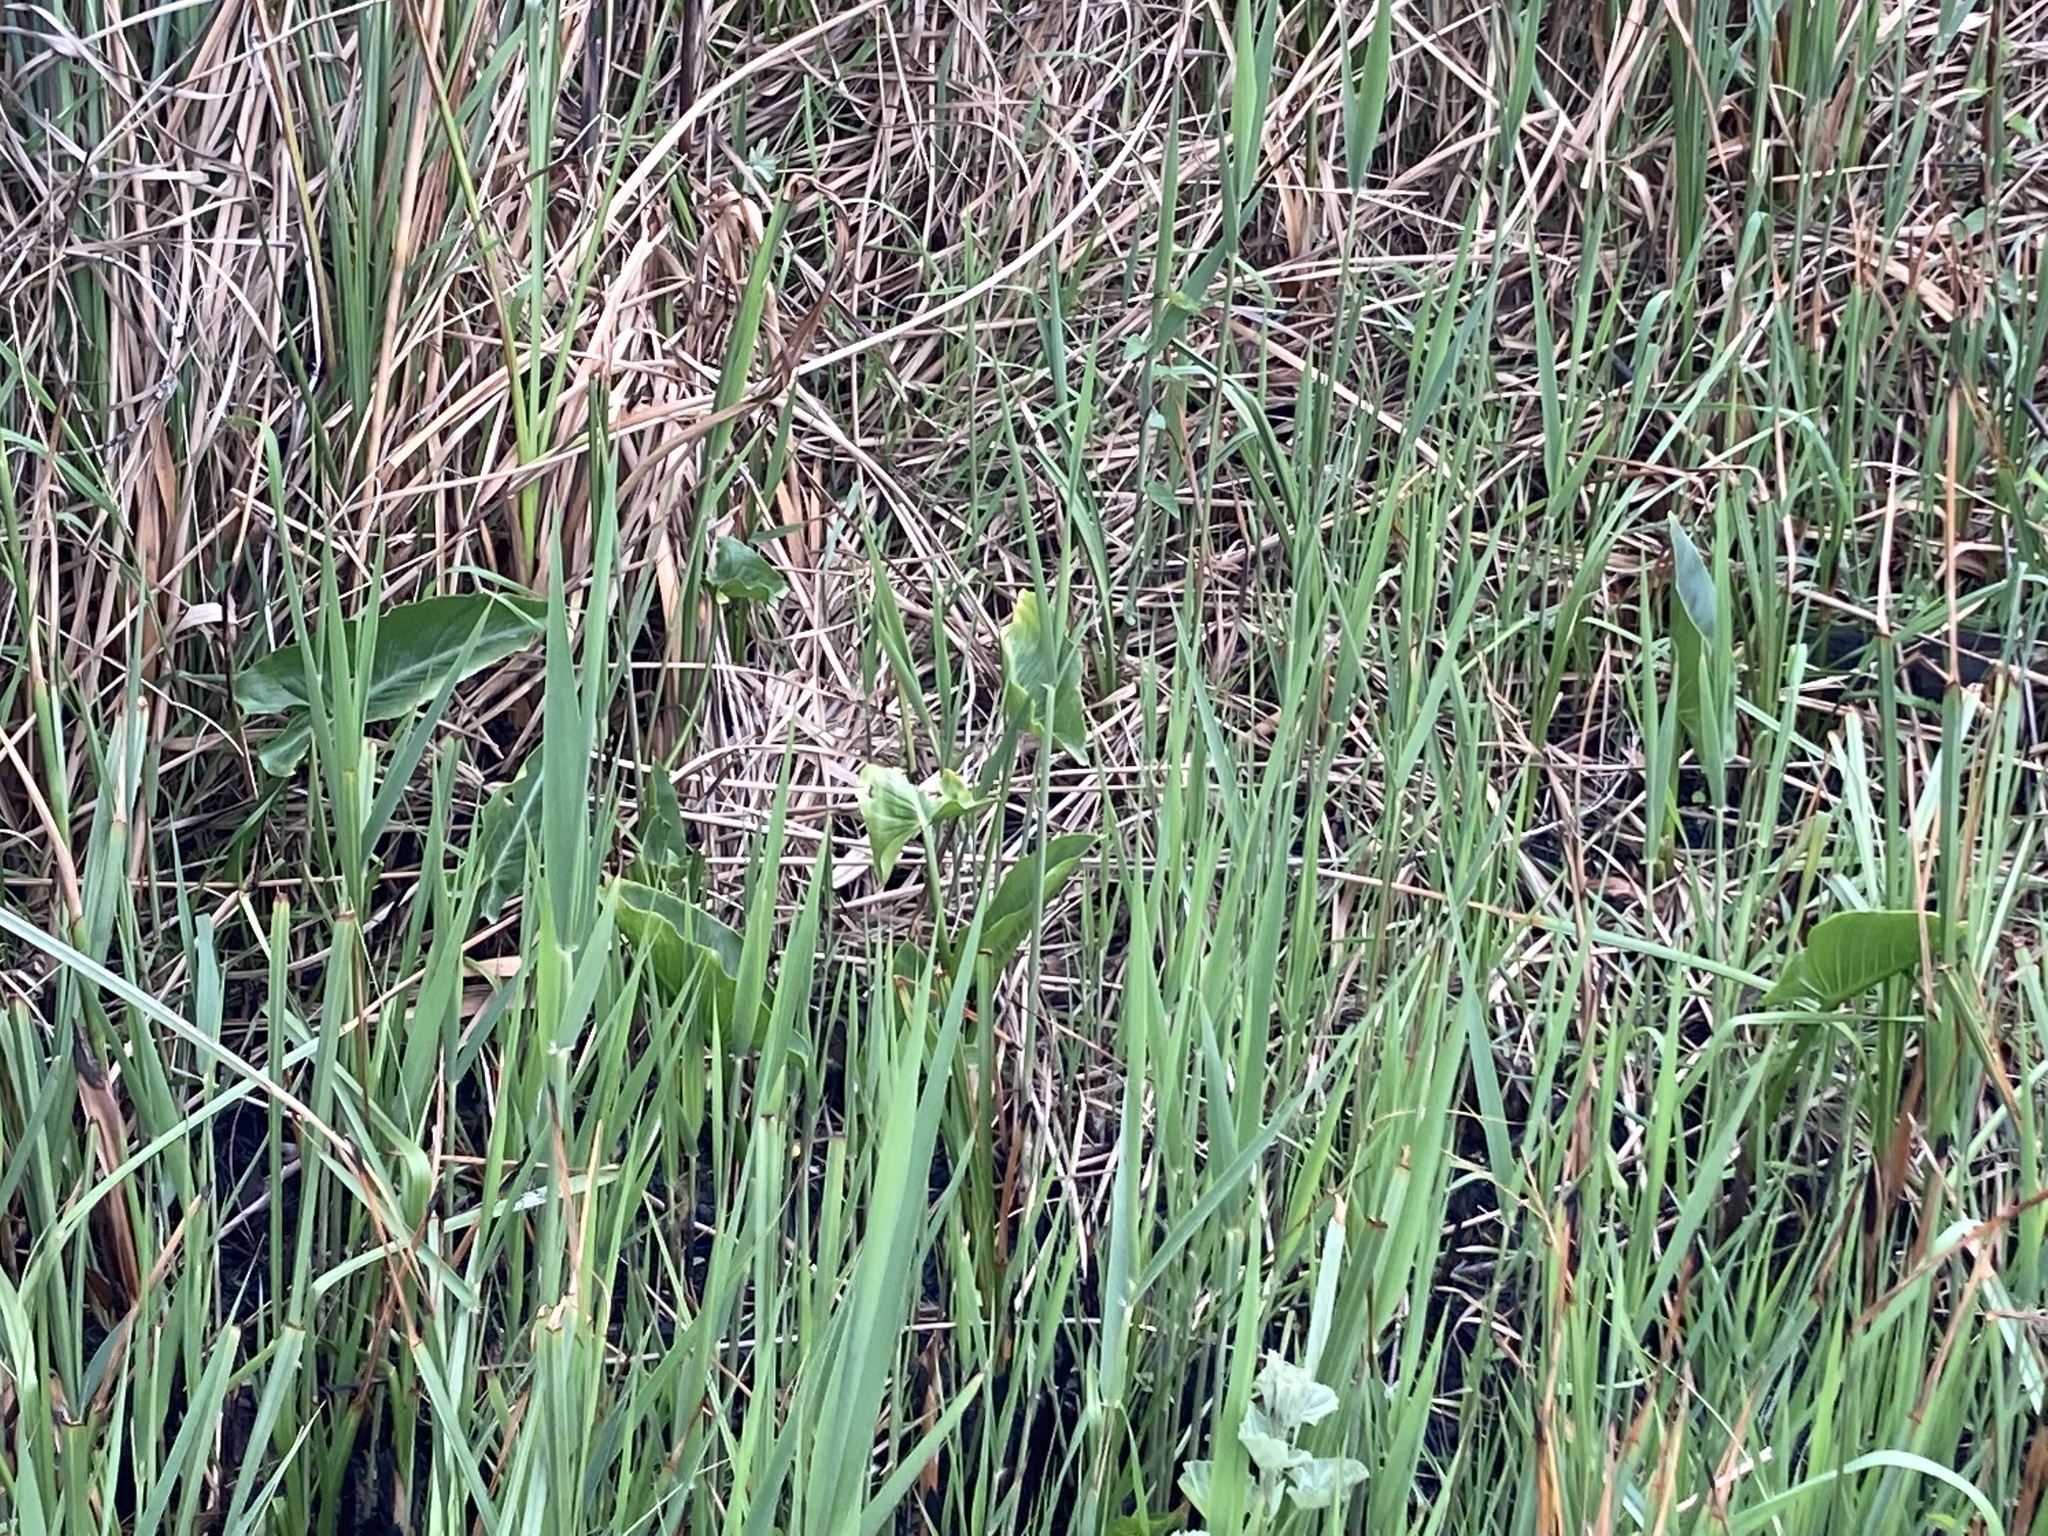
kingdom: Plantae
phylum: Tracheophyta
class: Liliopsida
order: Alismatales
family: Araceae
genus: Zantedeschia
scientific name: Zantedeschia aethiopica
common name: Altar-lily
